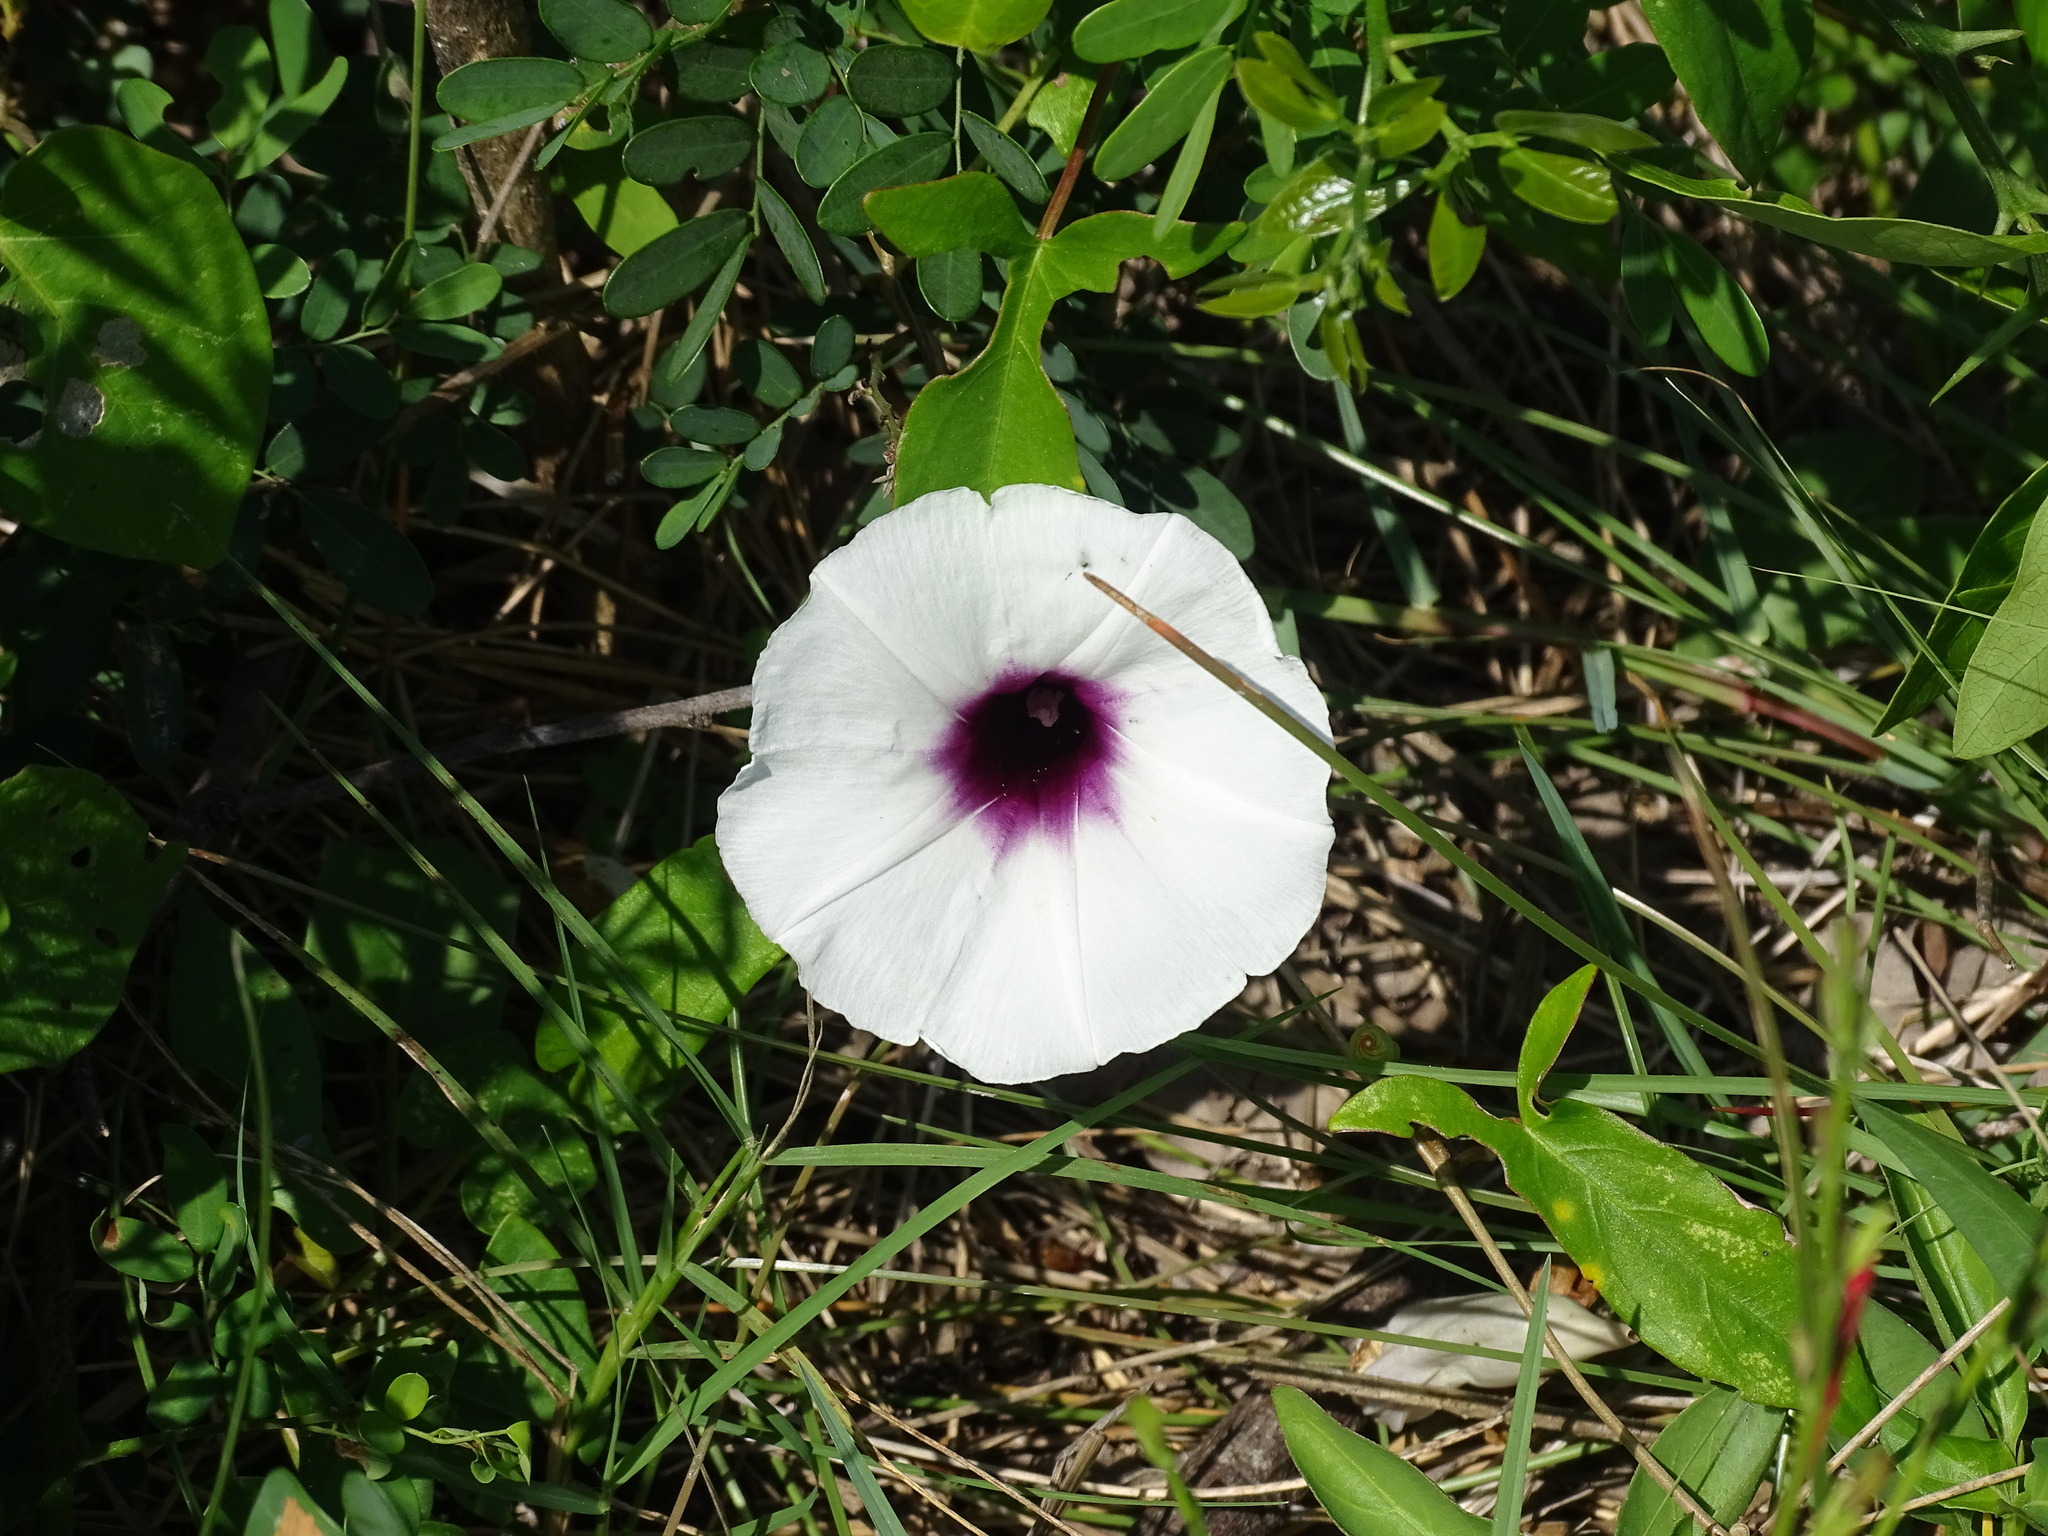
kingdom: Plantae
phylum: Tracheophyta
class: Magnoliopsida
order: Solanales
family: Convolvulaceae
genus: Ipomoea
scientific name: Ipomoea anisomeres
